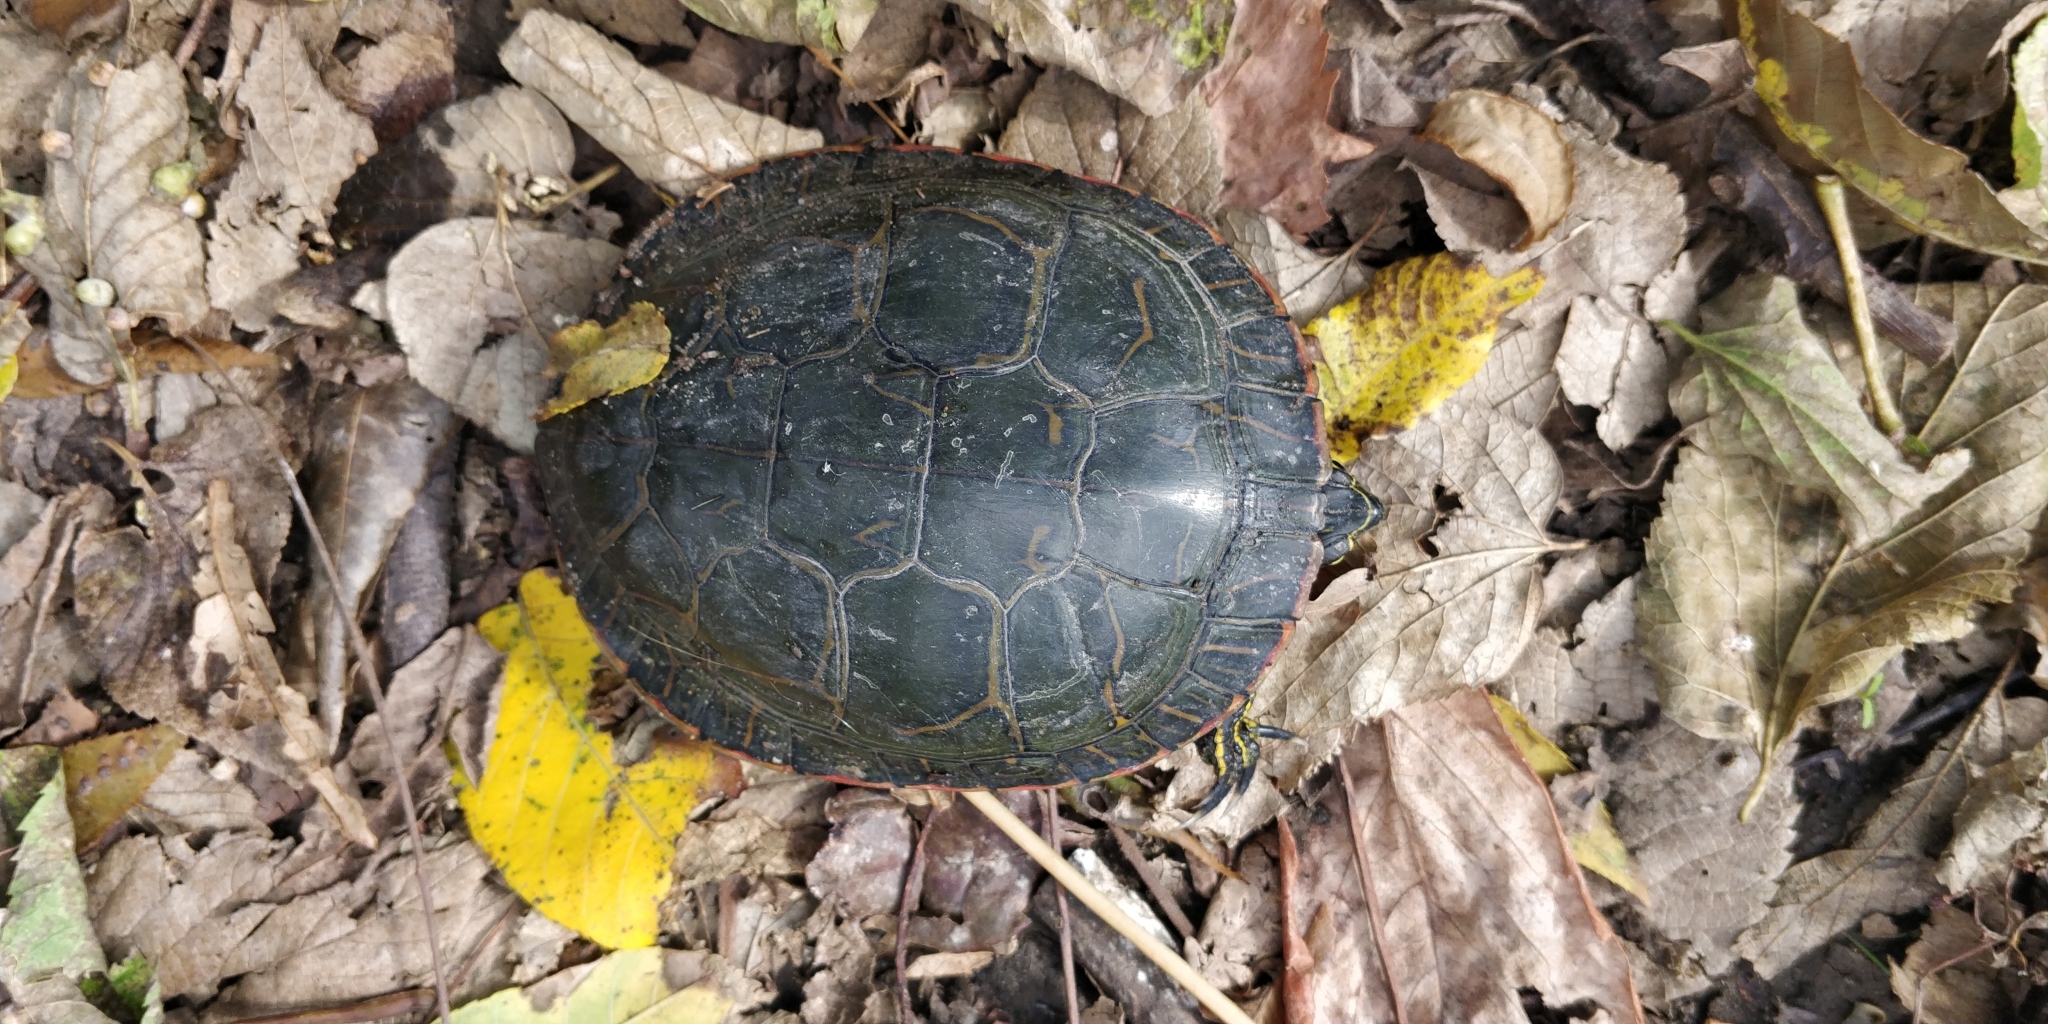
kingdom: Animalia
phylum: Chordata
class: Testudines
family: Emydidae
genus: Chrysemys
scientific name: Chrysemys picta
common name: Painted turtle
